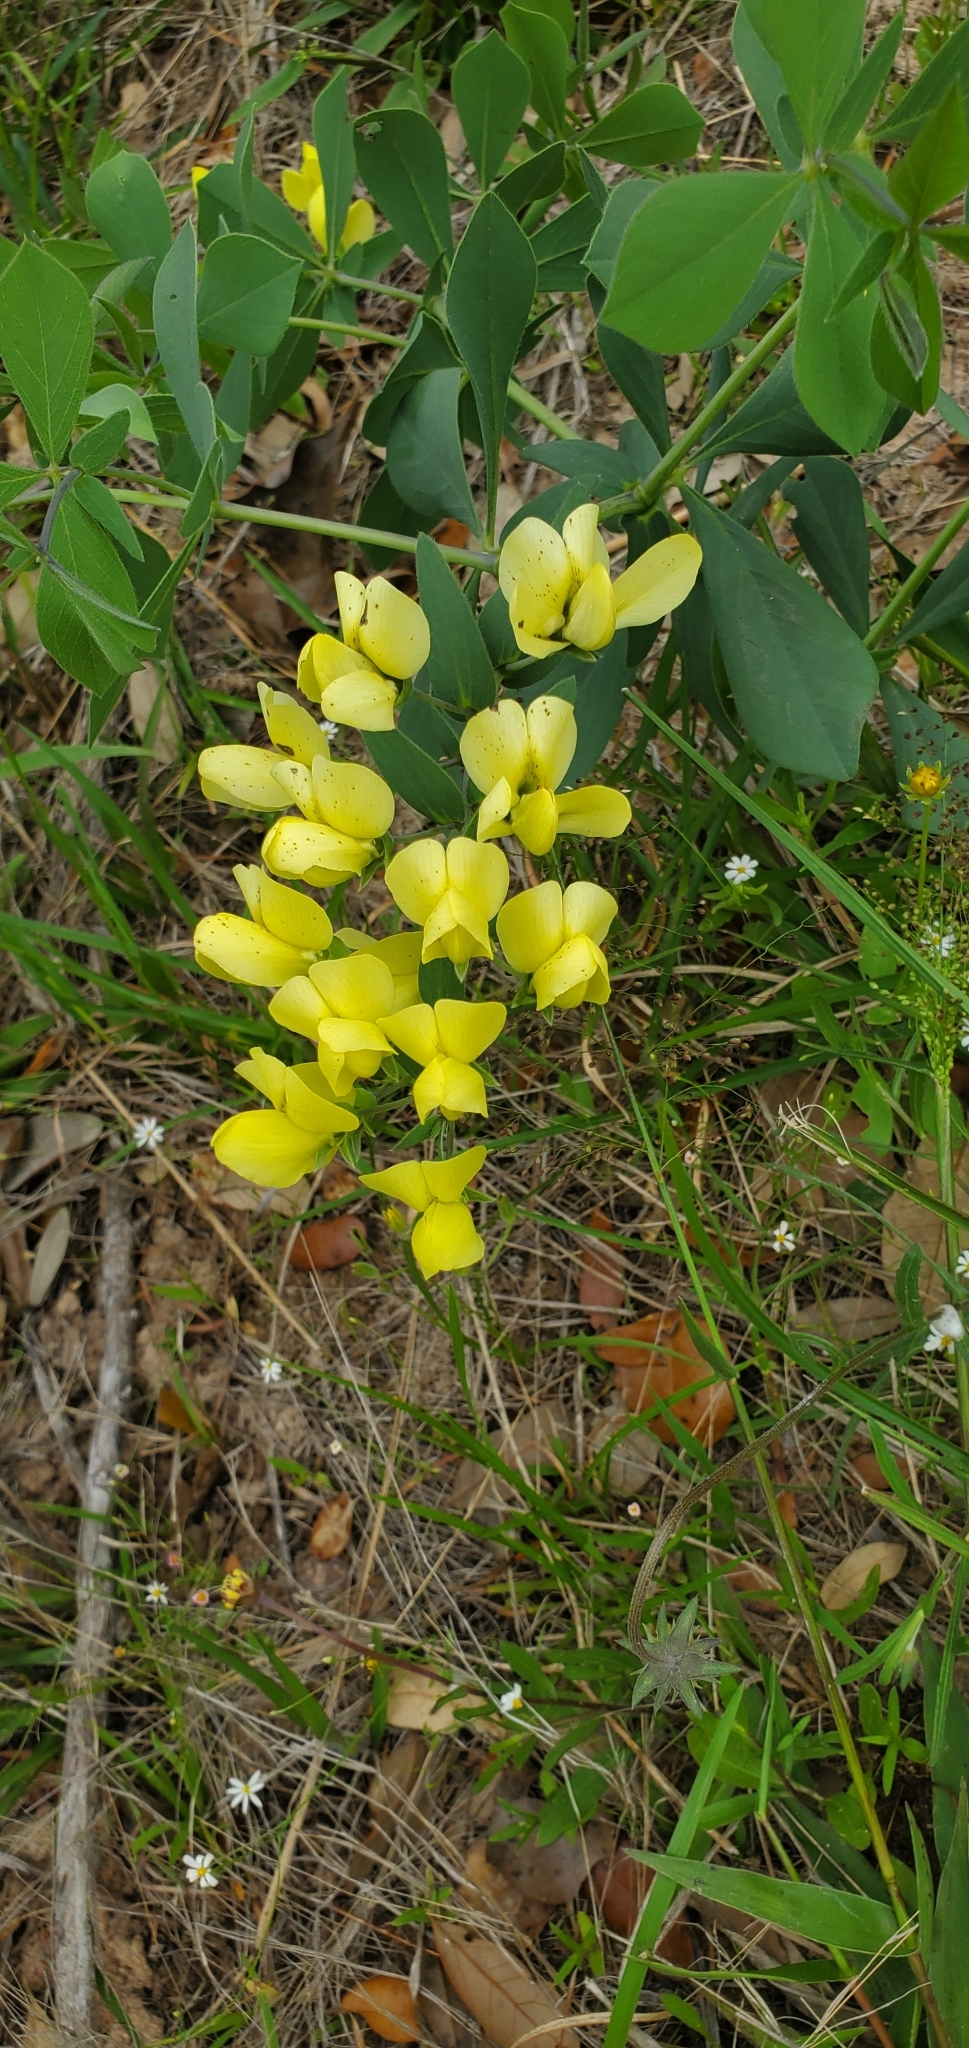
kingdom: Plantae
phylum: Tracheophyta
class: Magnoliopsida
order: Fabales
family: Fabaceae
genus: Baptisia
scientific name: Baptisia bracteata
